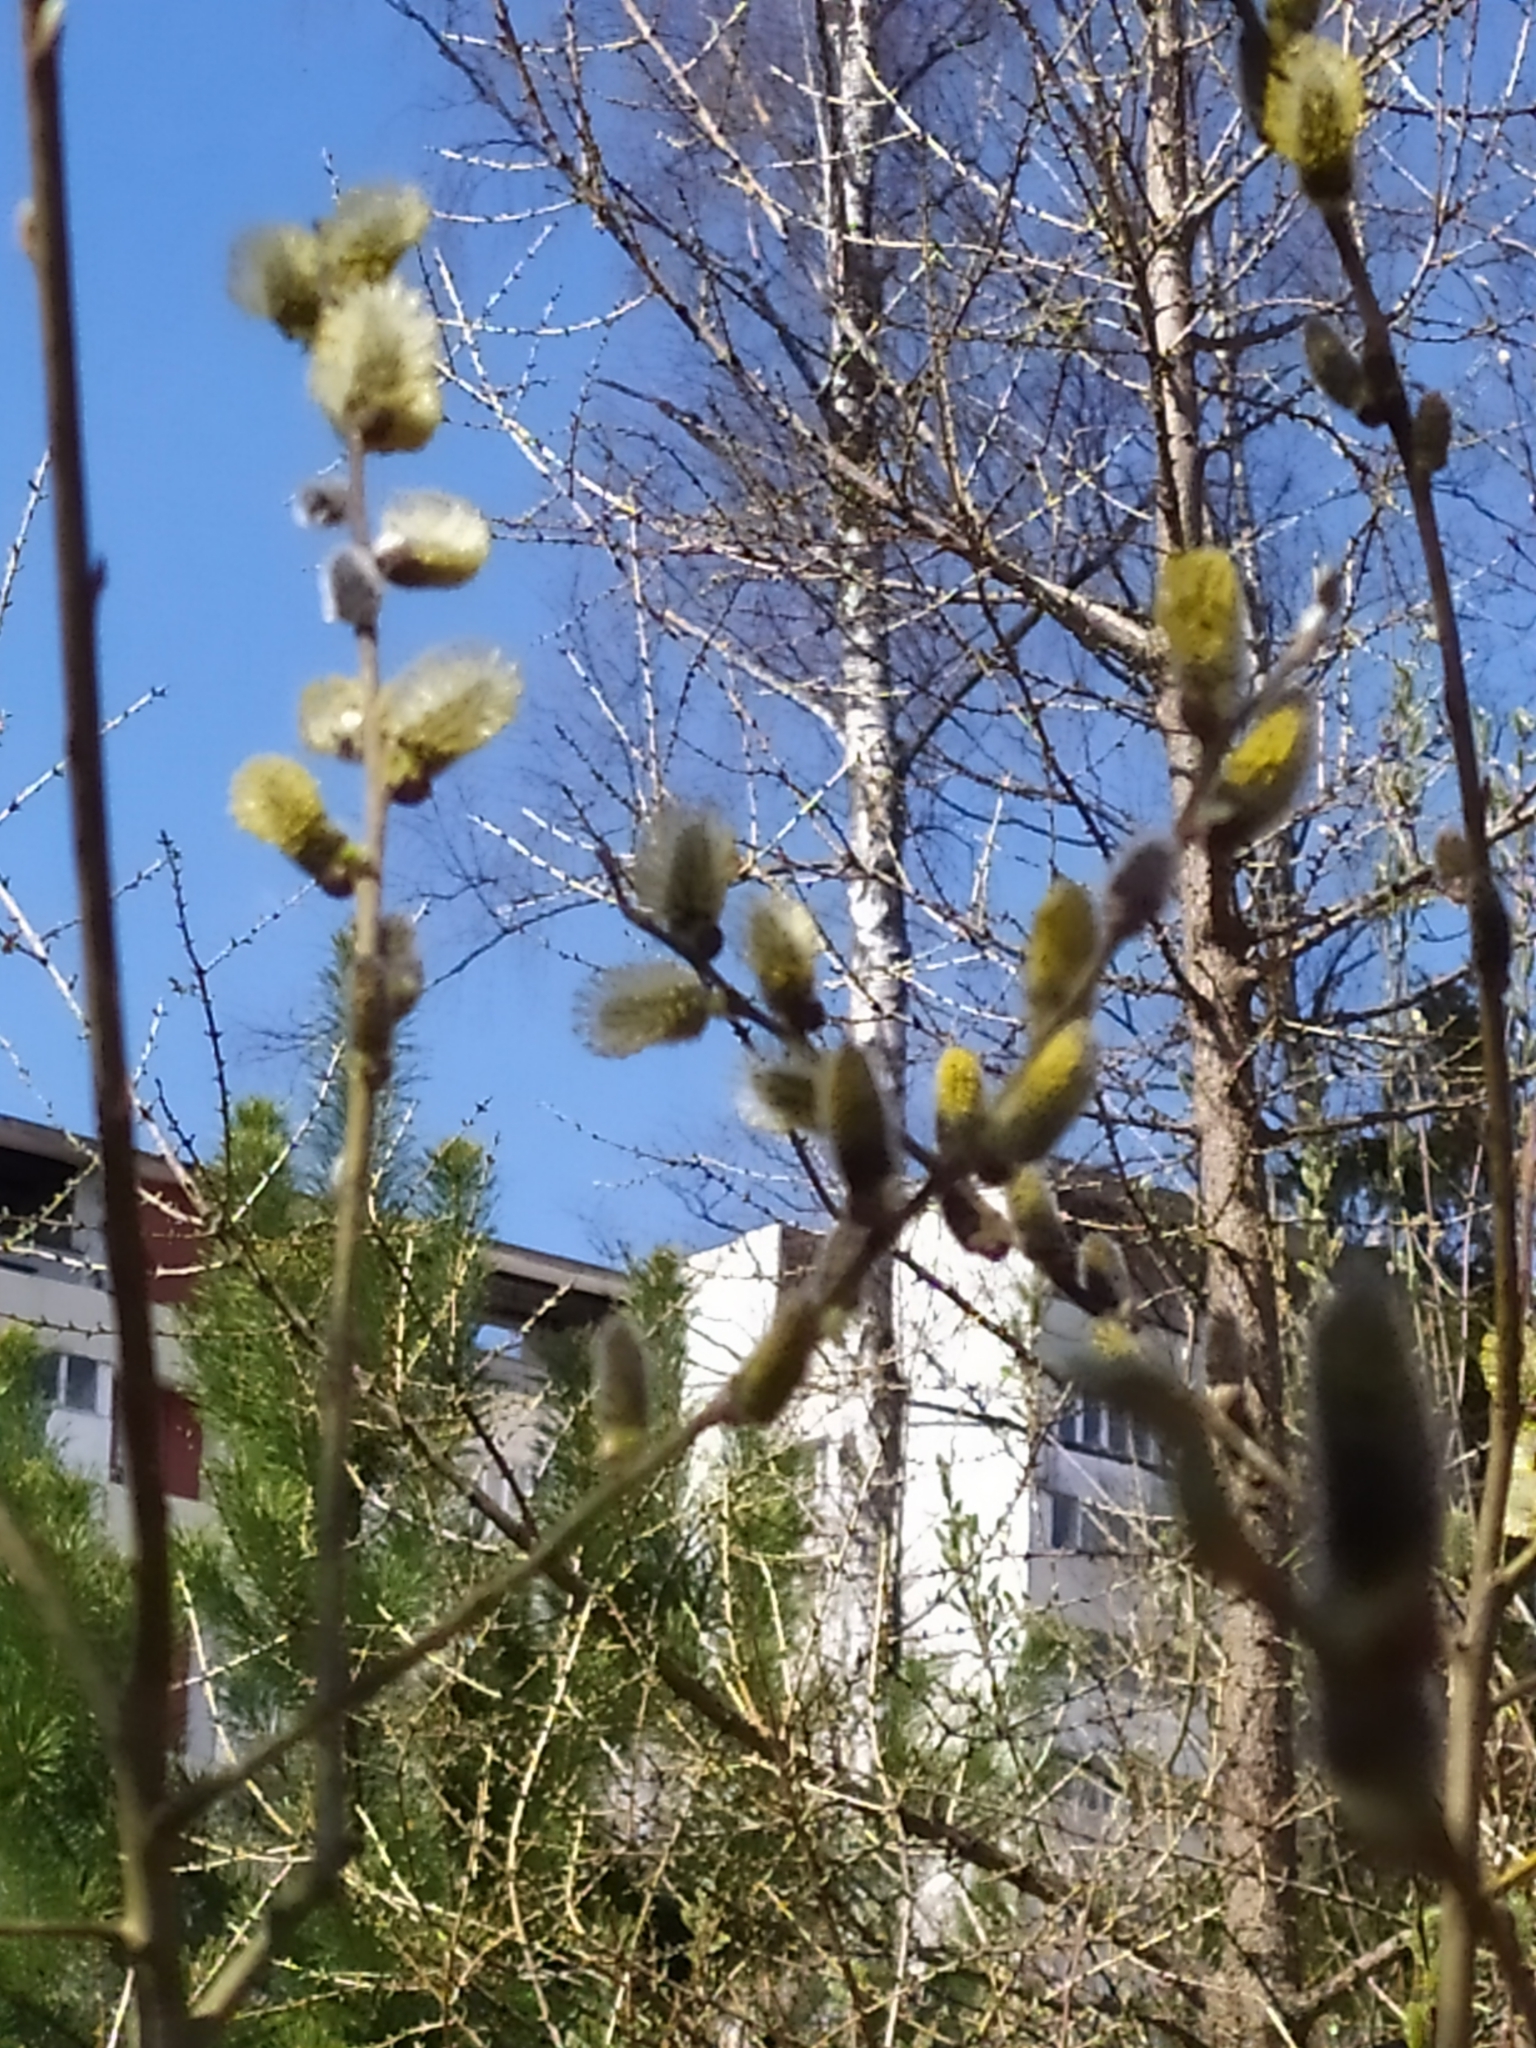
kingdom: Plantae
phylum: Tracheophyta
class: Magnoliopsida
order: Malpighiales
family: Salicaceae
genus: Salix
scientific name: Salix caprea
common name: Goat willow
